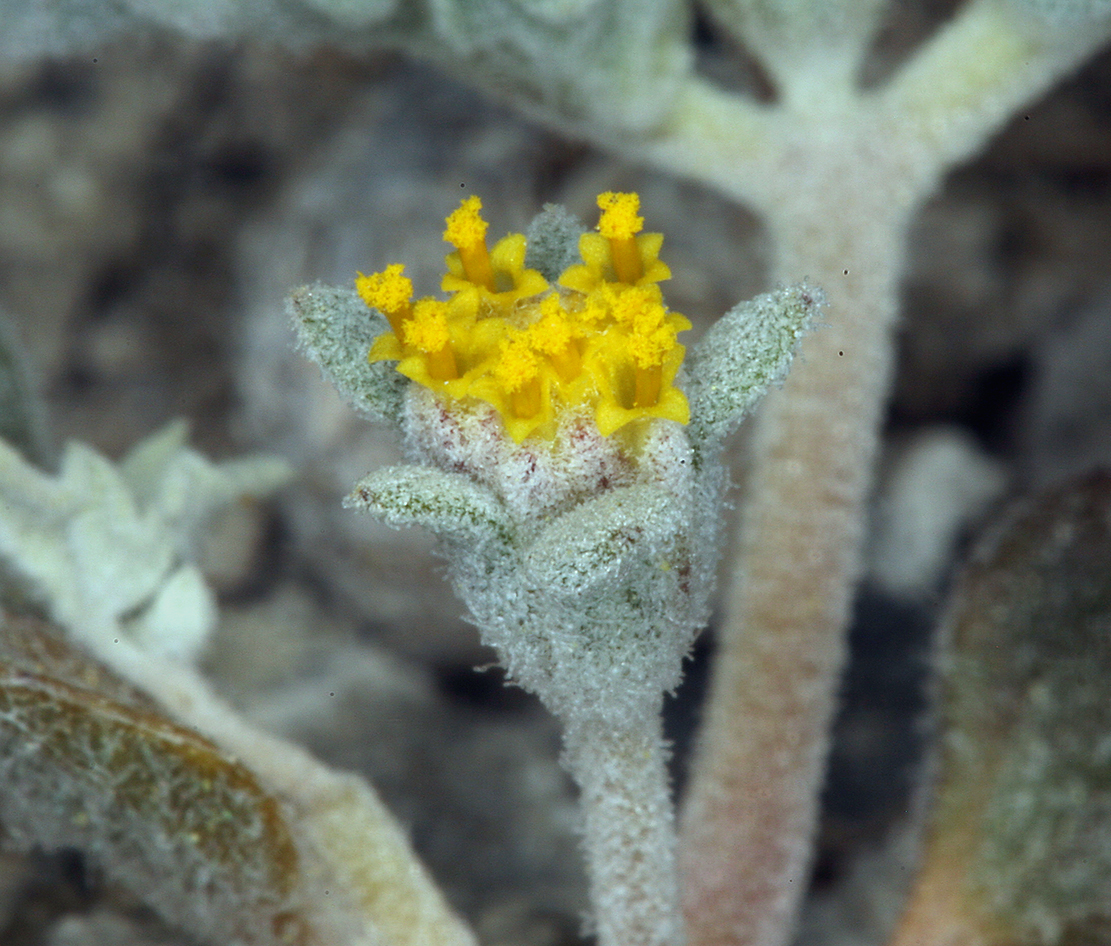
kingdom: Plantae
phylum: Tracheophyta
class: Magnoliopsida
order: Asterales
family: Asteraceae
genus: Psathyrotes
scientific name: Psathyrotes annua
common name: Mealy rosettes
